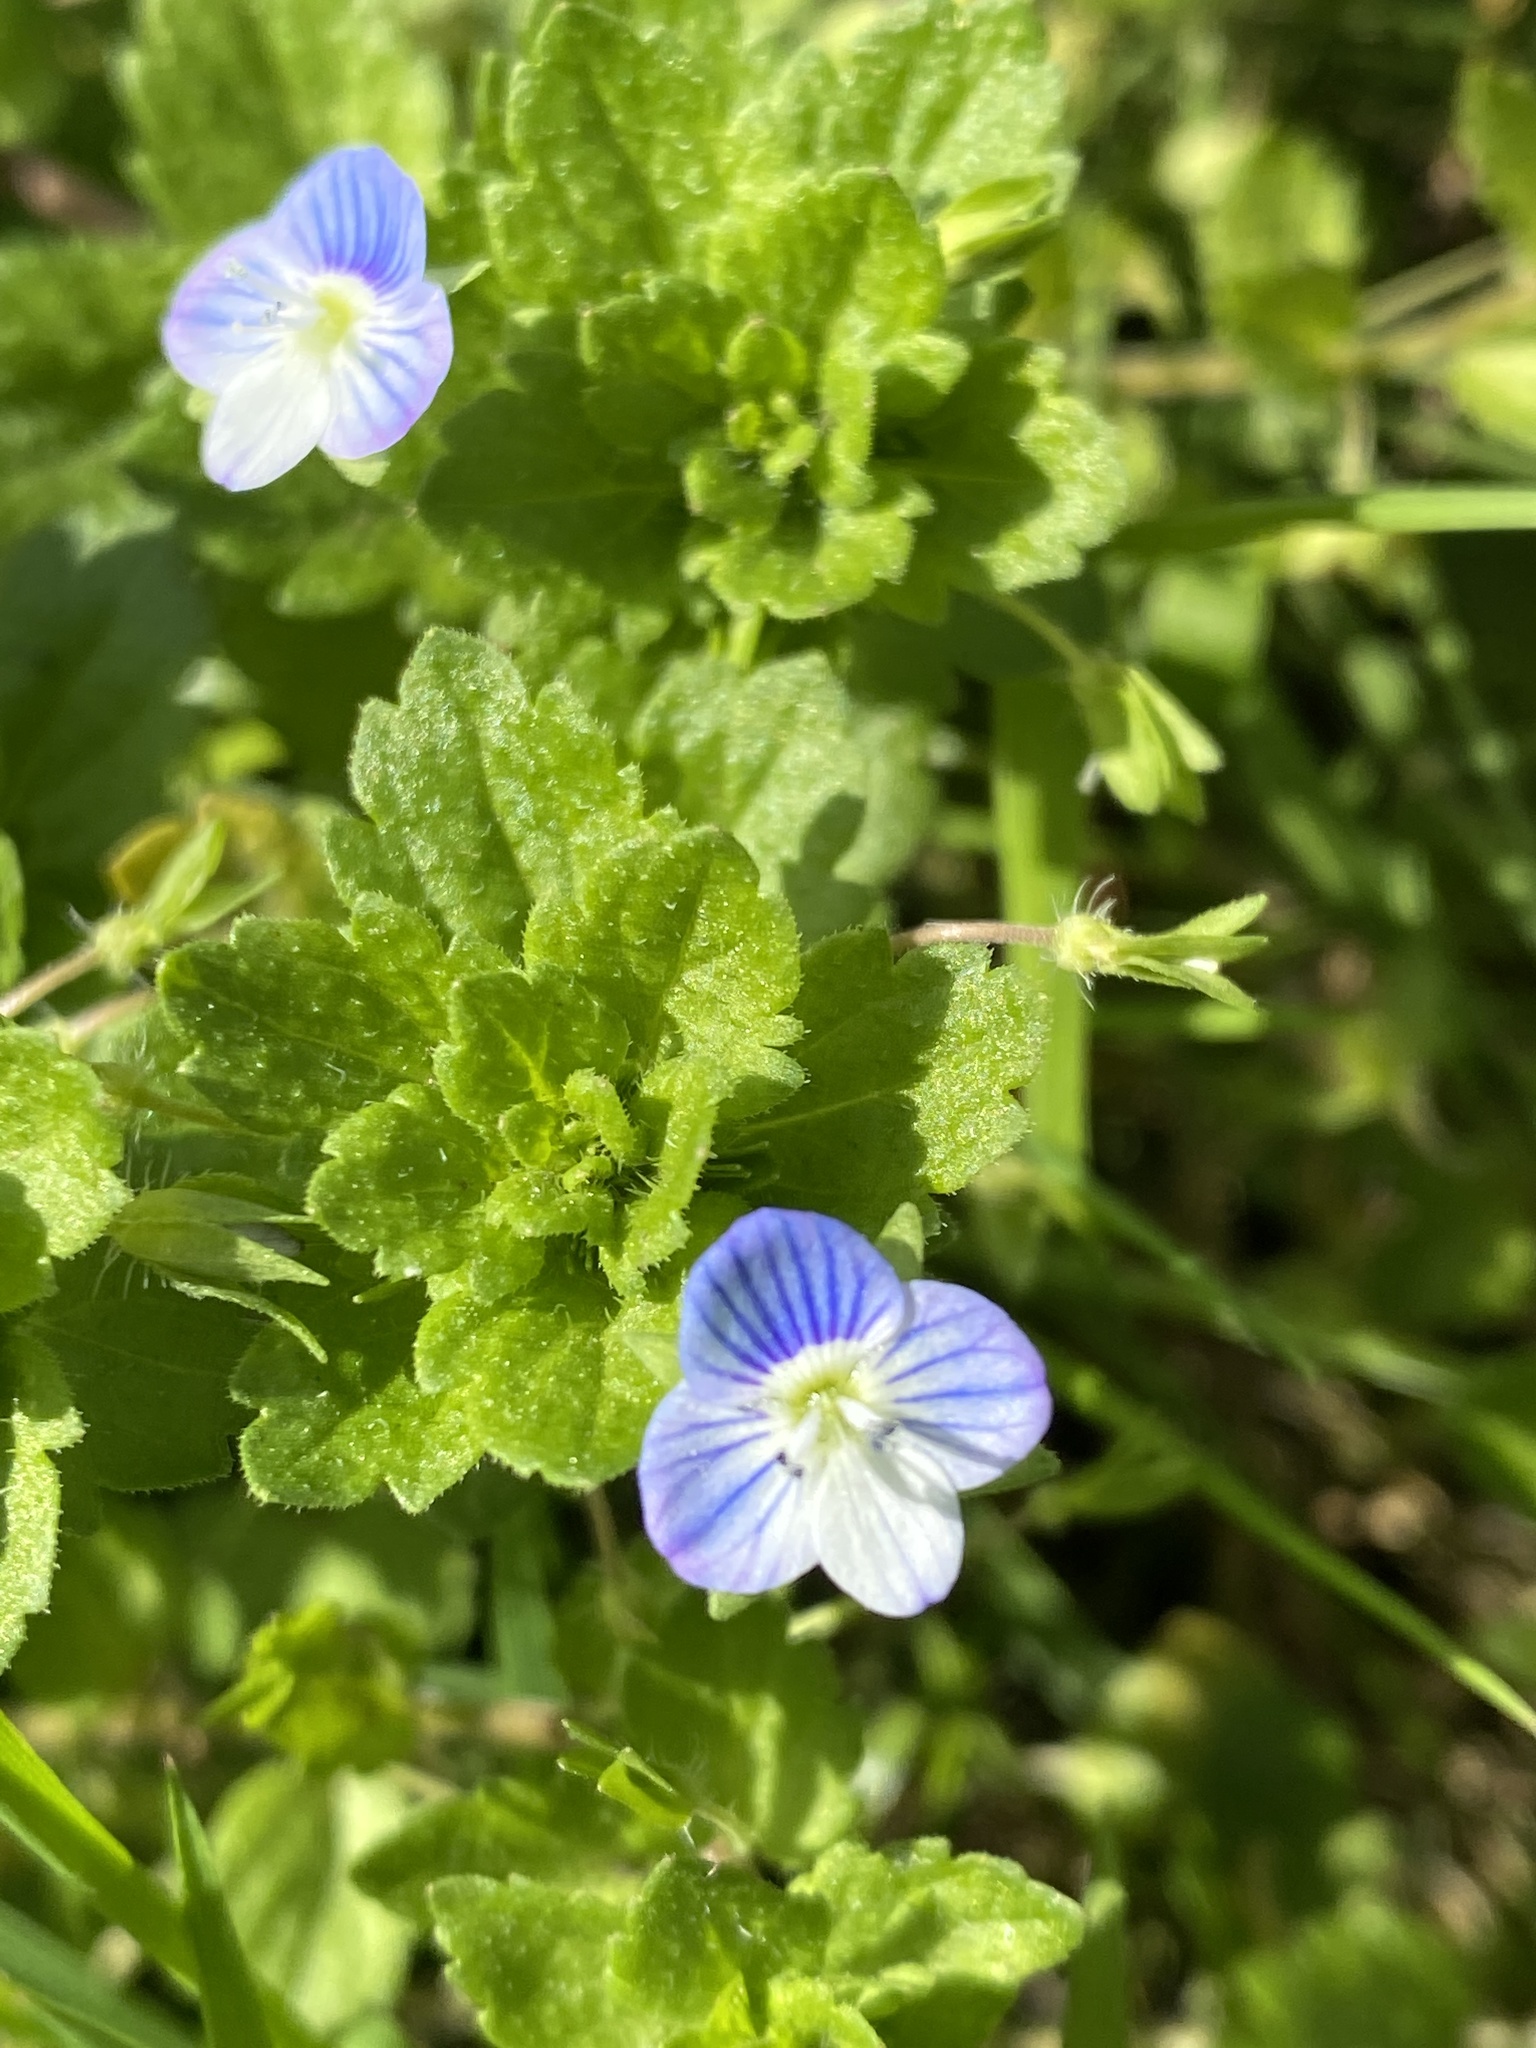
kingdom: Plantae
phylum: Tracheophyta
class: Magnoliopsida
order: Lamiales
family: Plantaginaceae
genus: Veronica
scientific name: Veronica persica
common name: Common field-speedwell
